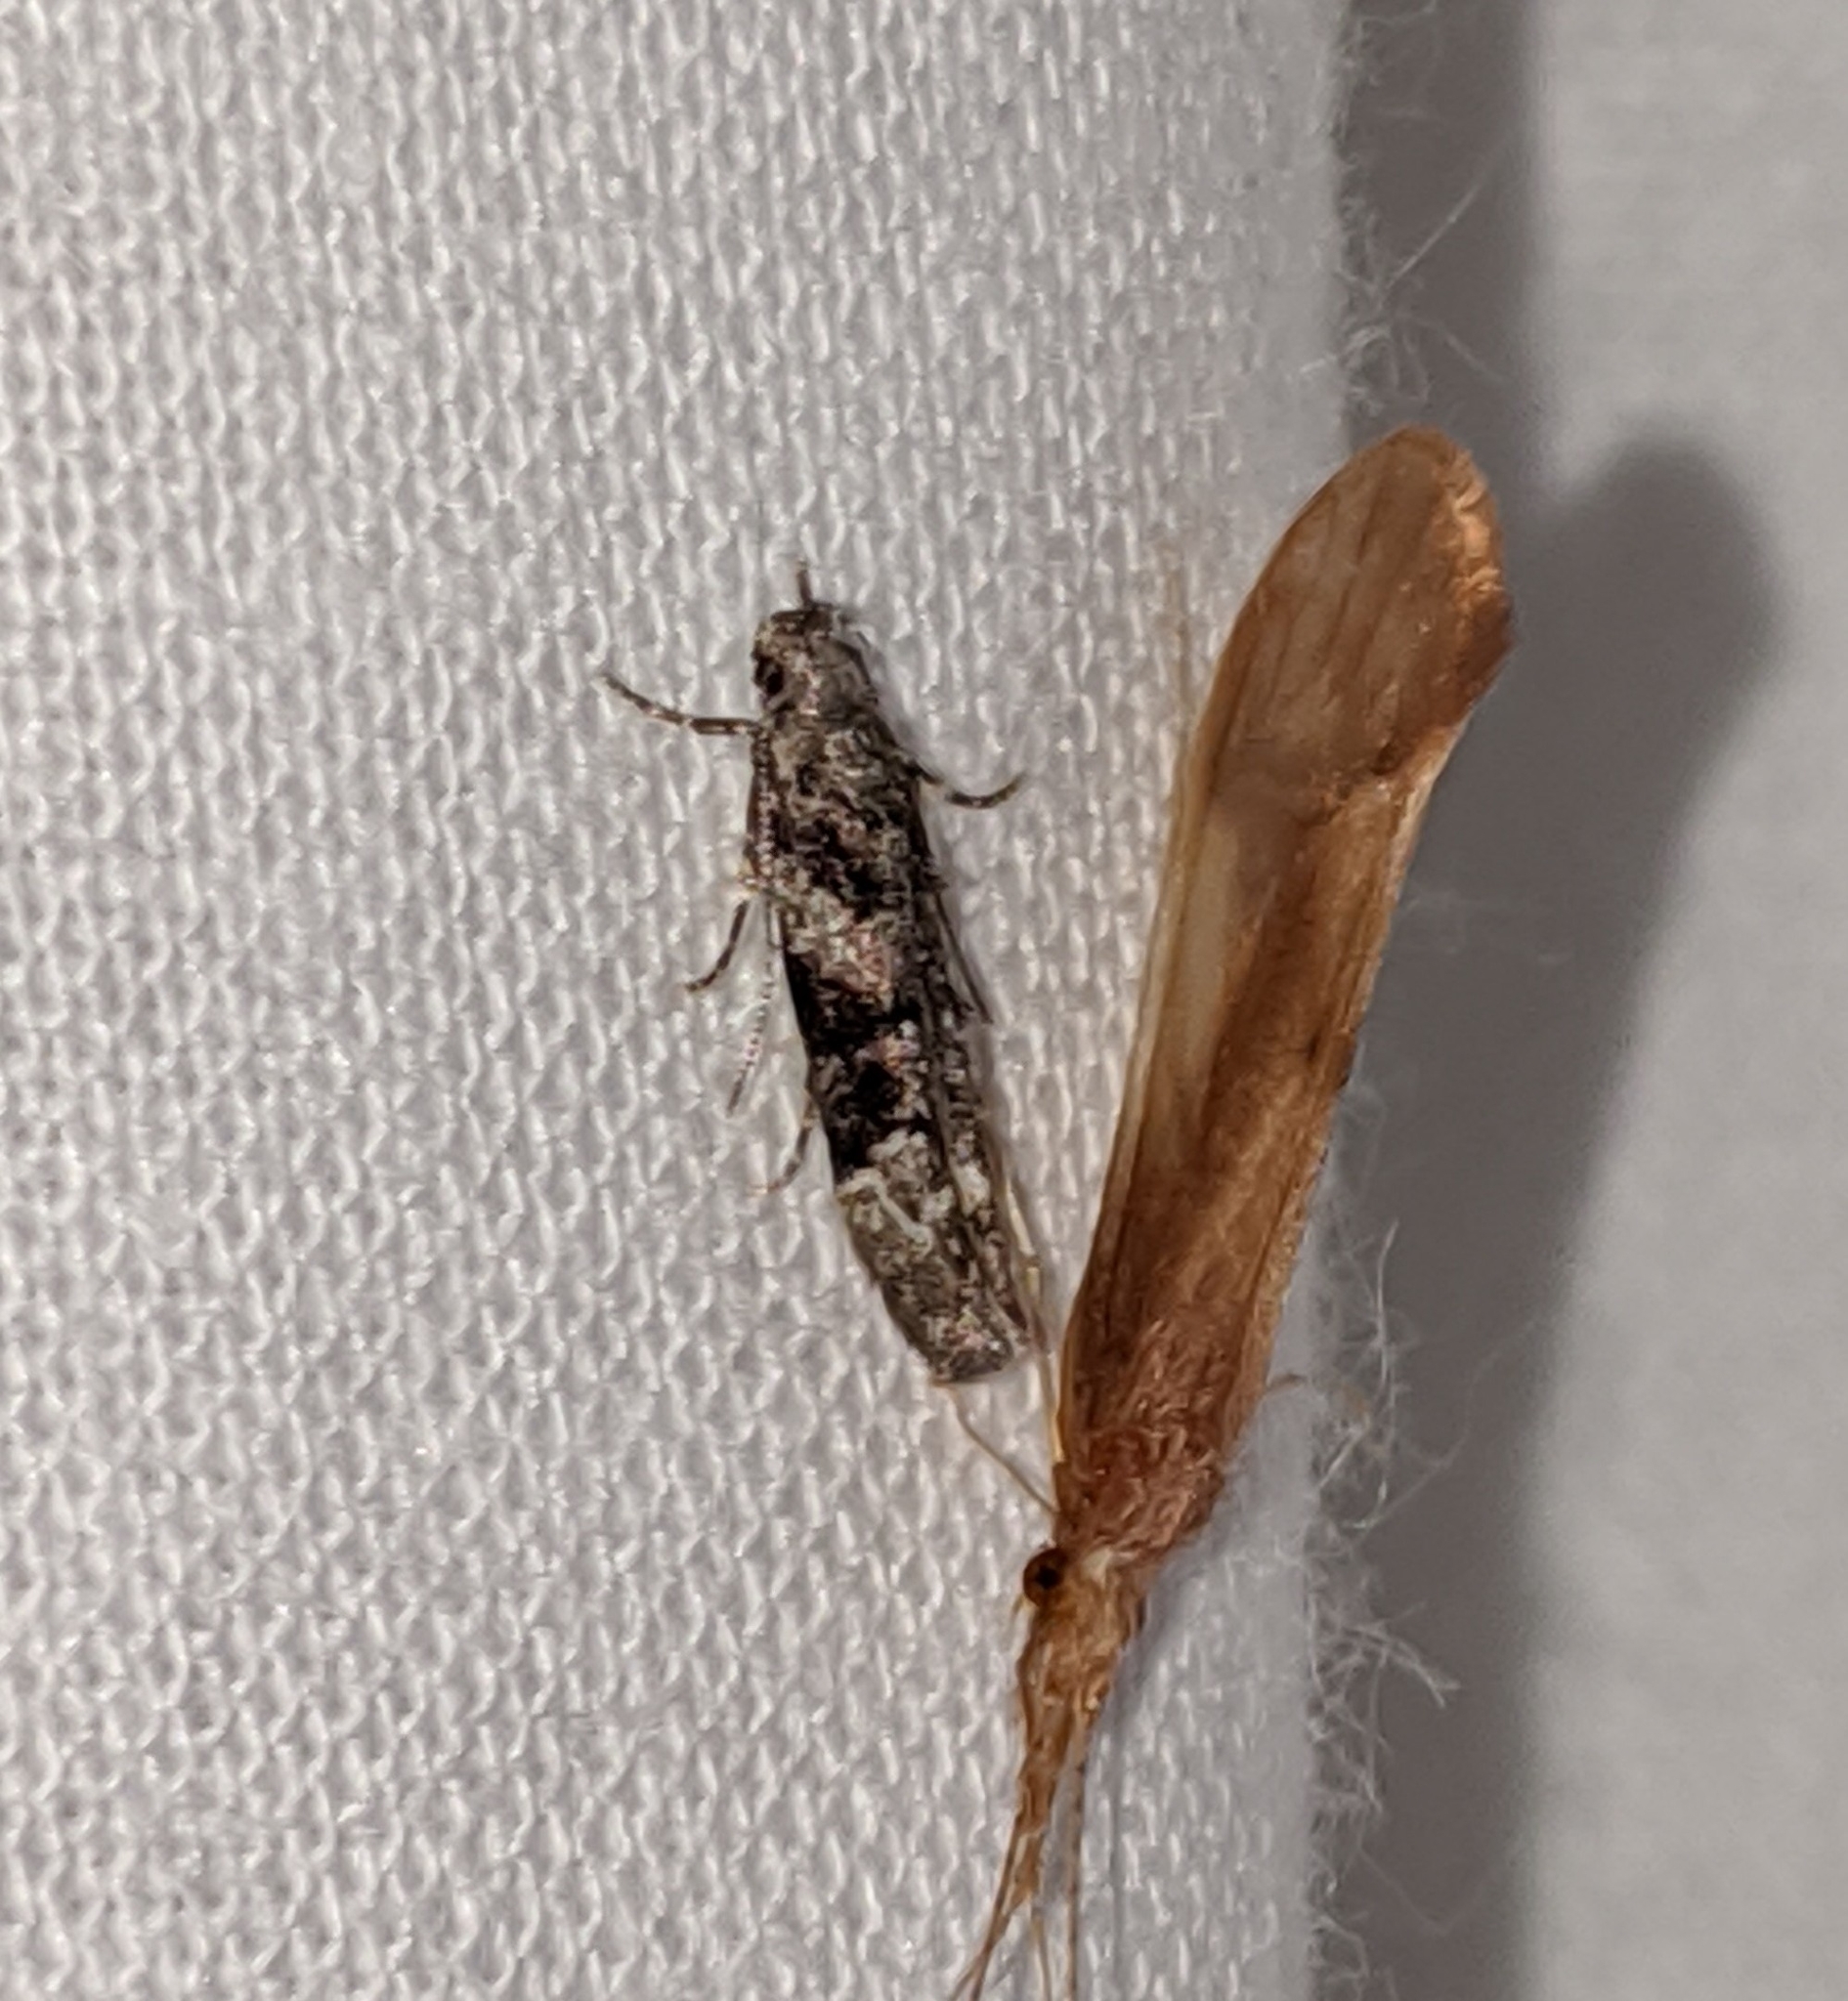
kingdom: Animalia
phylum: Arthropoda
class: Insecta
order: Lepidoptera
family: Gelechiidae
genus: Coleotechnites
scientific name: Coleotechnites atrupictella
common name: Spruce micromoth
